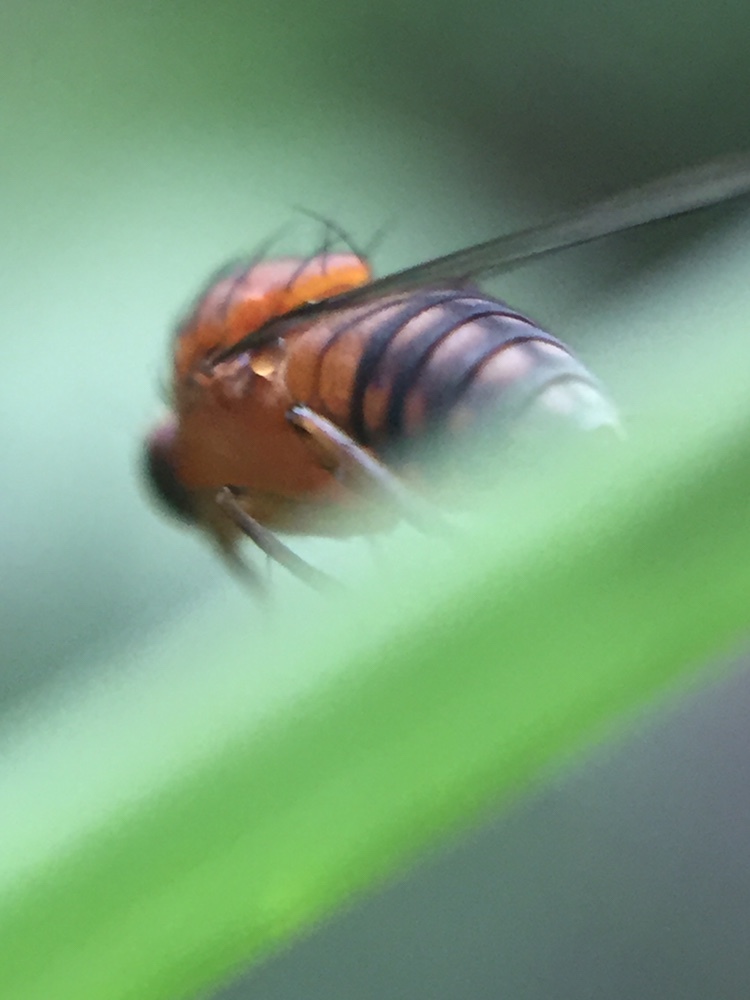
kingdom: Animalia
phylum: Arthropoda
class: Insecta
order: Diptera
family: Phoridae
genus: Sciadocera
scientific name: Sciadocera rufomaculata
